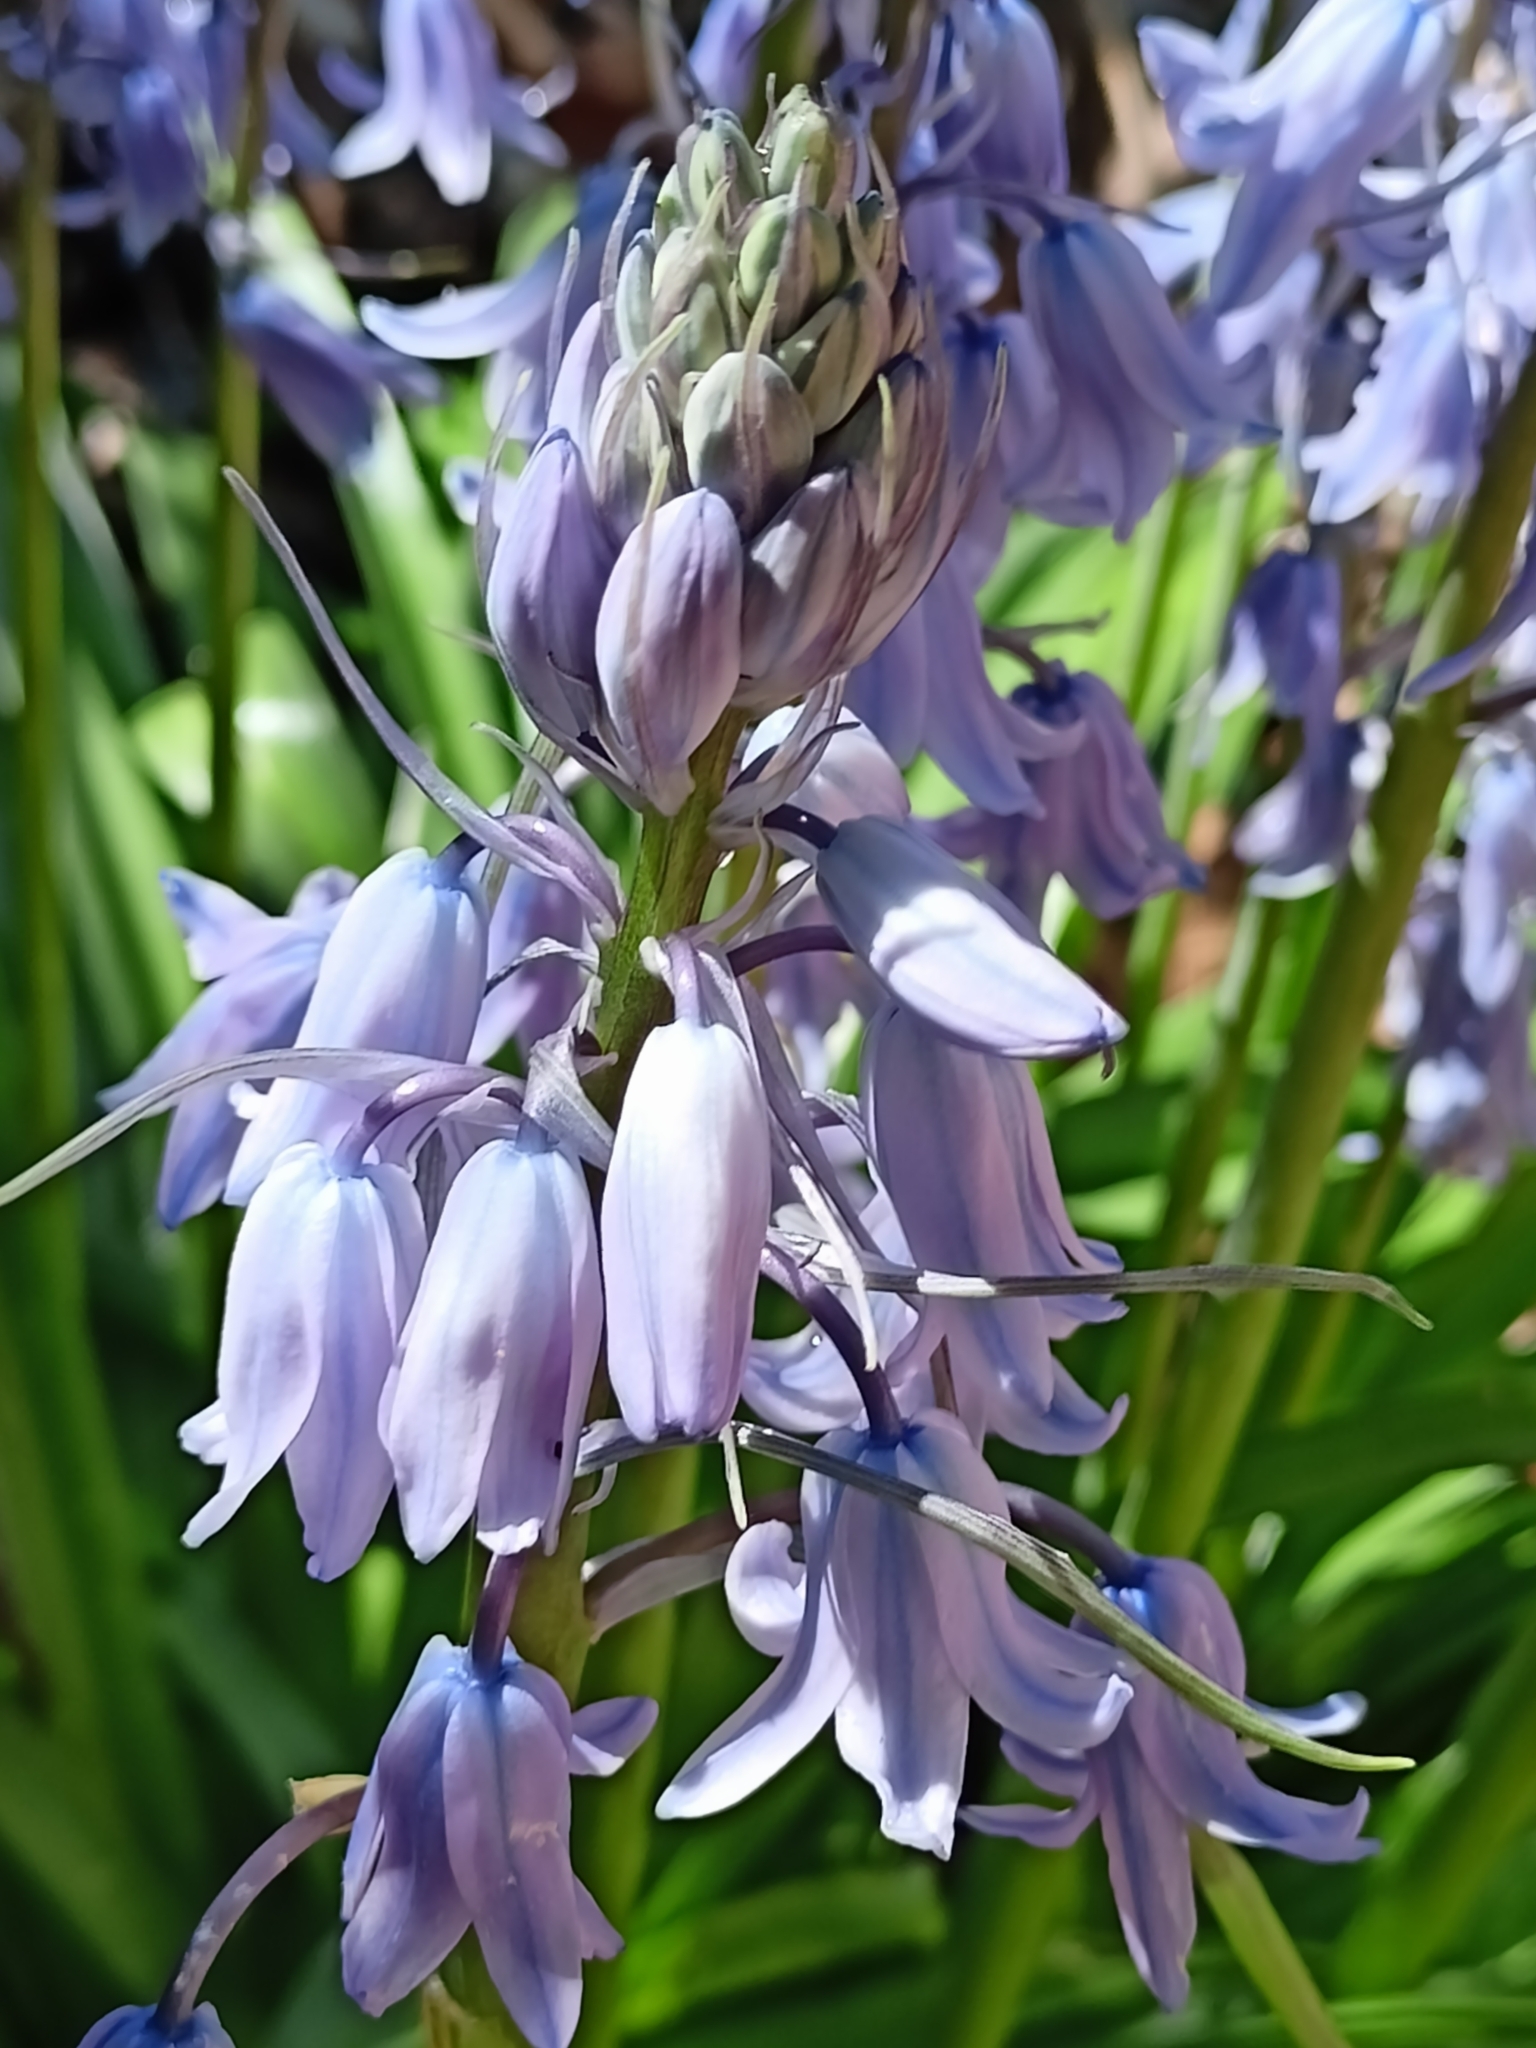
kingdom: Plantae
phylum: Tracheophyta
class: Liliopsida
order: Asparagales
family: Asparagaceae
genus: Hyacinthoides
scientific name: Hyacinthoides non-scripta
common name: Bluebell
